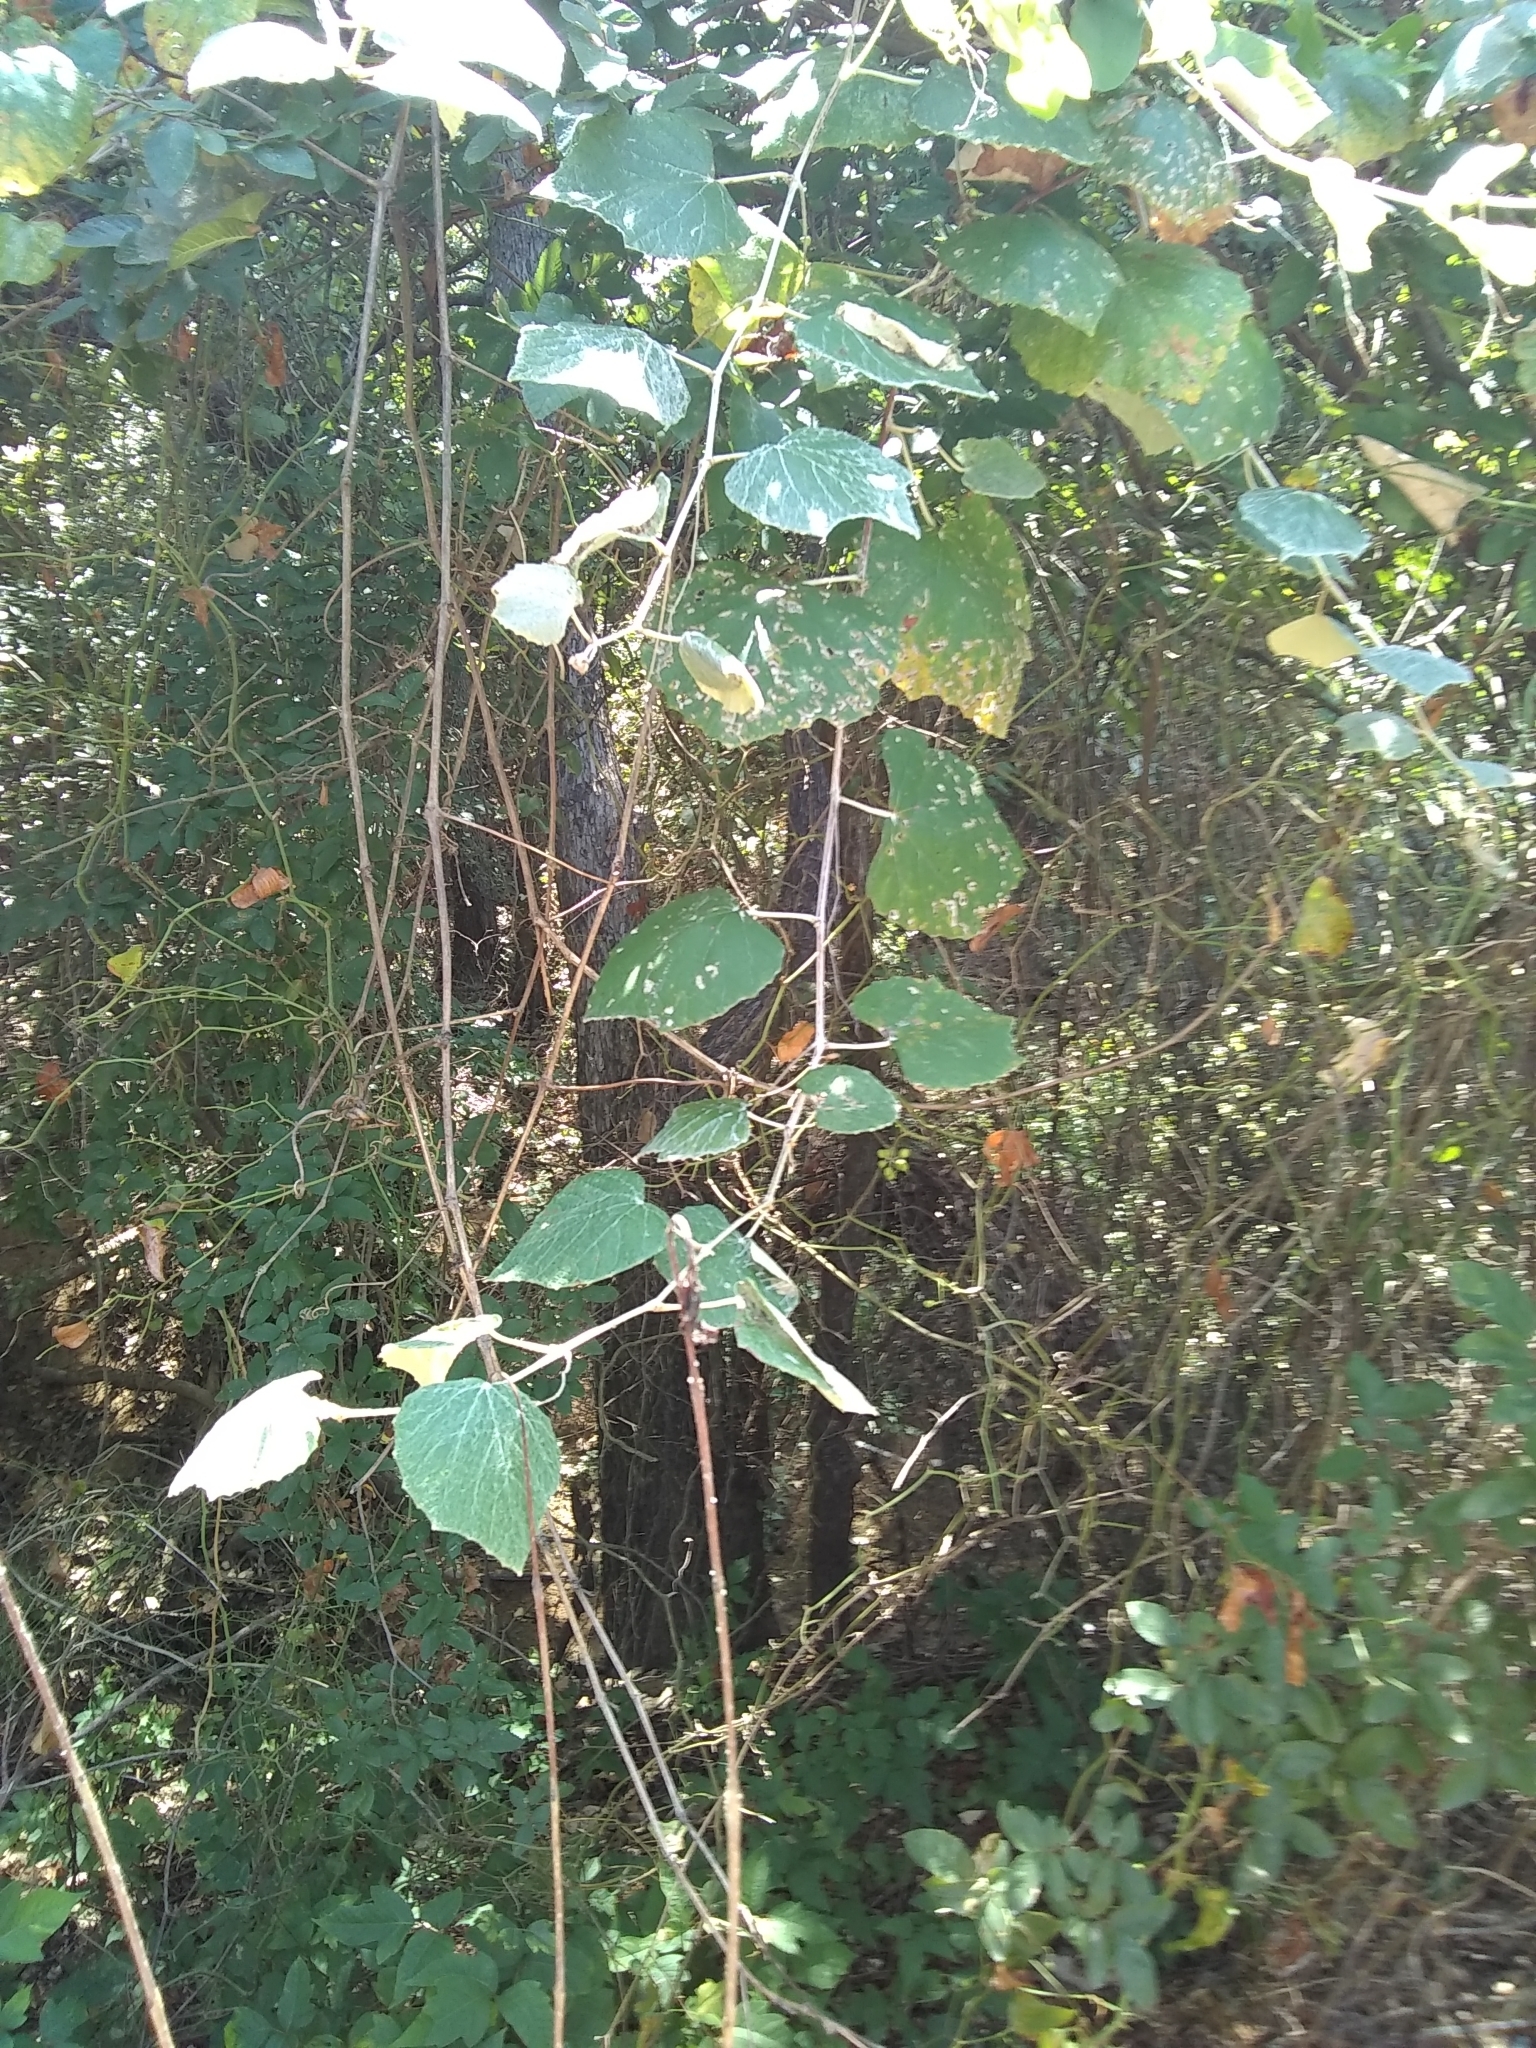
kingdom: Plantae
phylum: Tracheophyta
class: Magnoliopsida
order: Vitales
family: Vitaceae
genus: Vitis
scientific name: Vitis mustangensis
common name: Mustang grape
